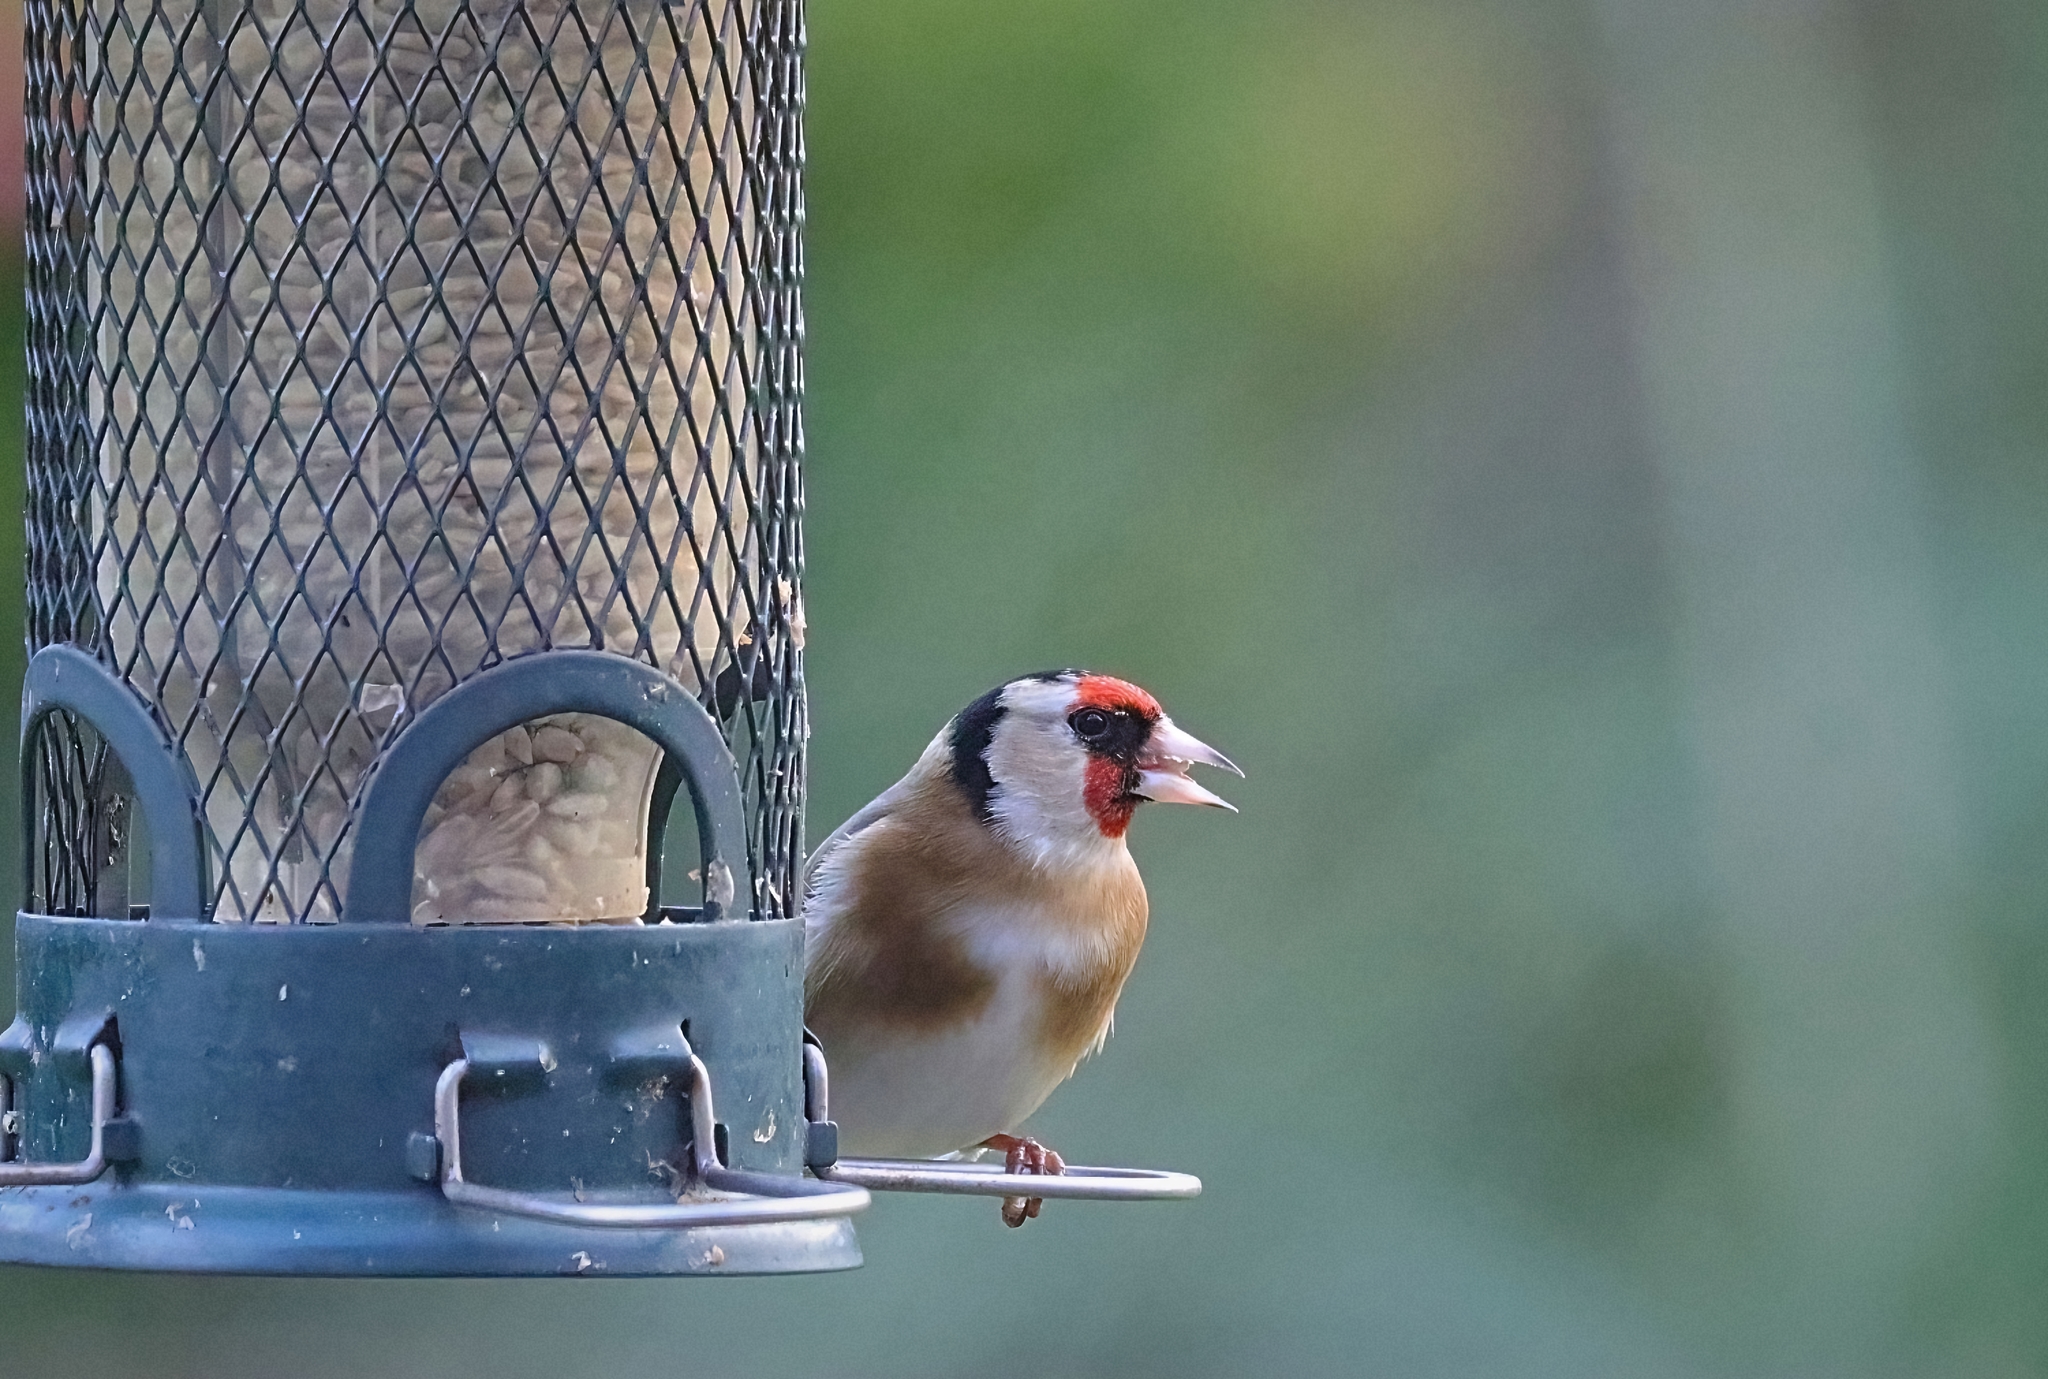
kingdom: Animalia
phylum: Chordata
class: Aves
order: Passeriformes
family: Fringillidae
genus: Carduelis
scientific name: Carduelis carduelis
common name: European goldfinch
